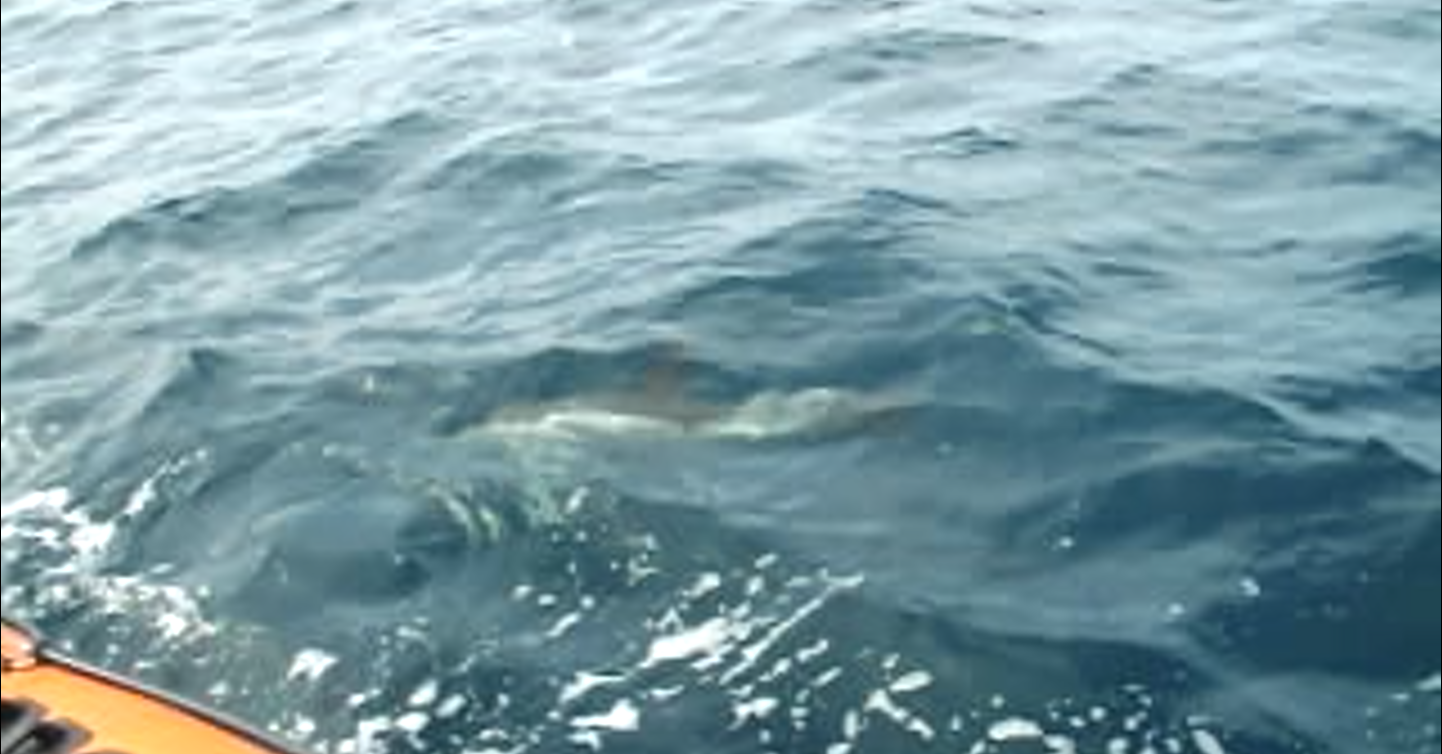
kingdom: Animalia
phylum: Chordata
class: Mammalia
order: Cetacea
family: Delphinidae
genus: Delphinus
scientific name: Delphinus delphis
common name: Common dolphin
